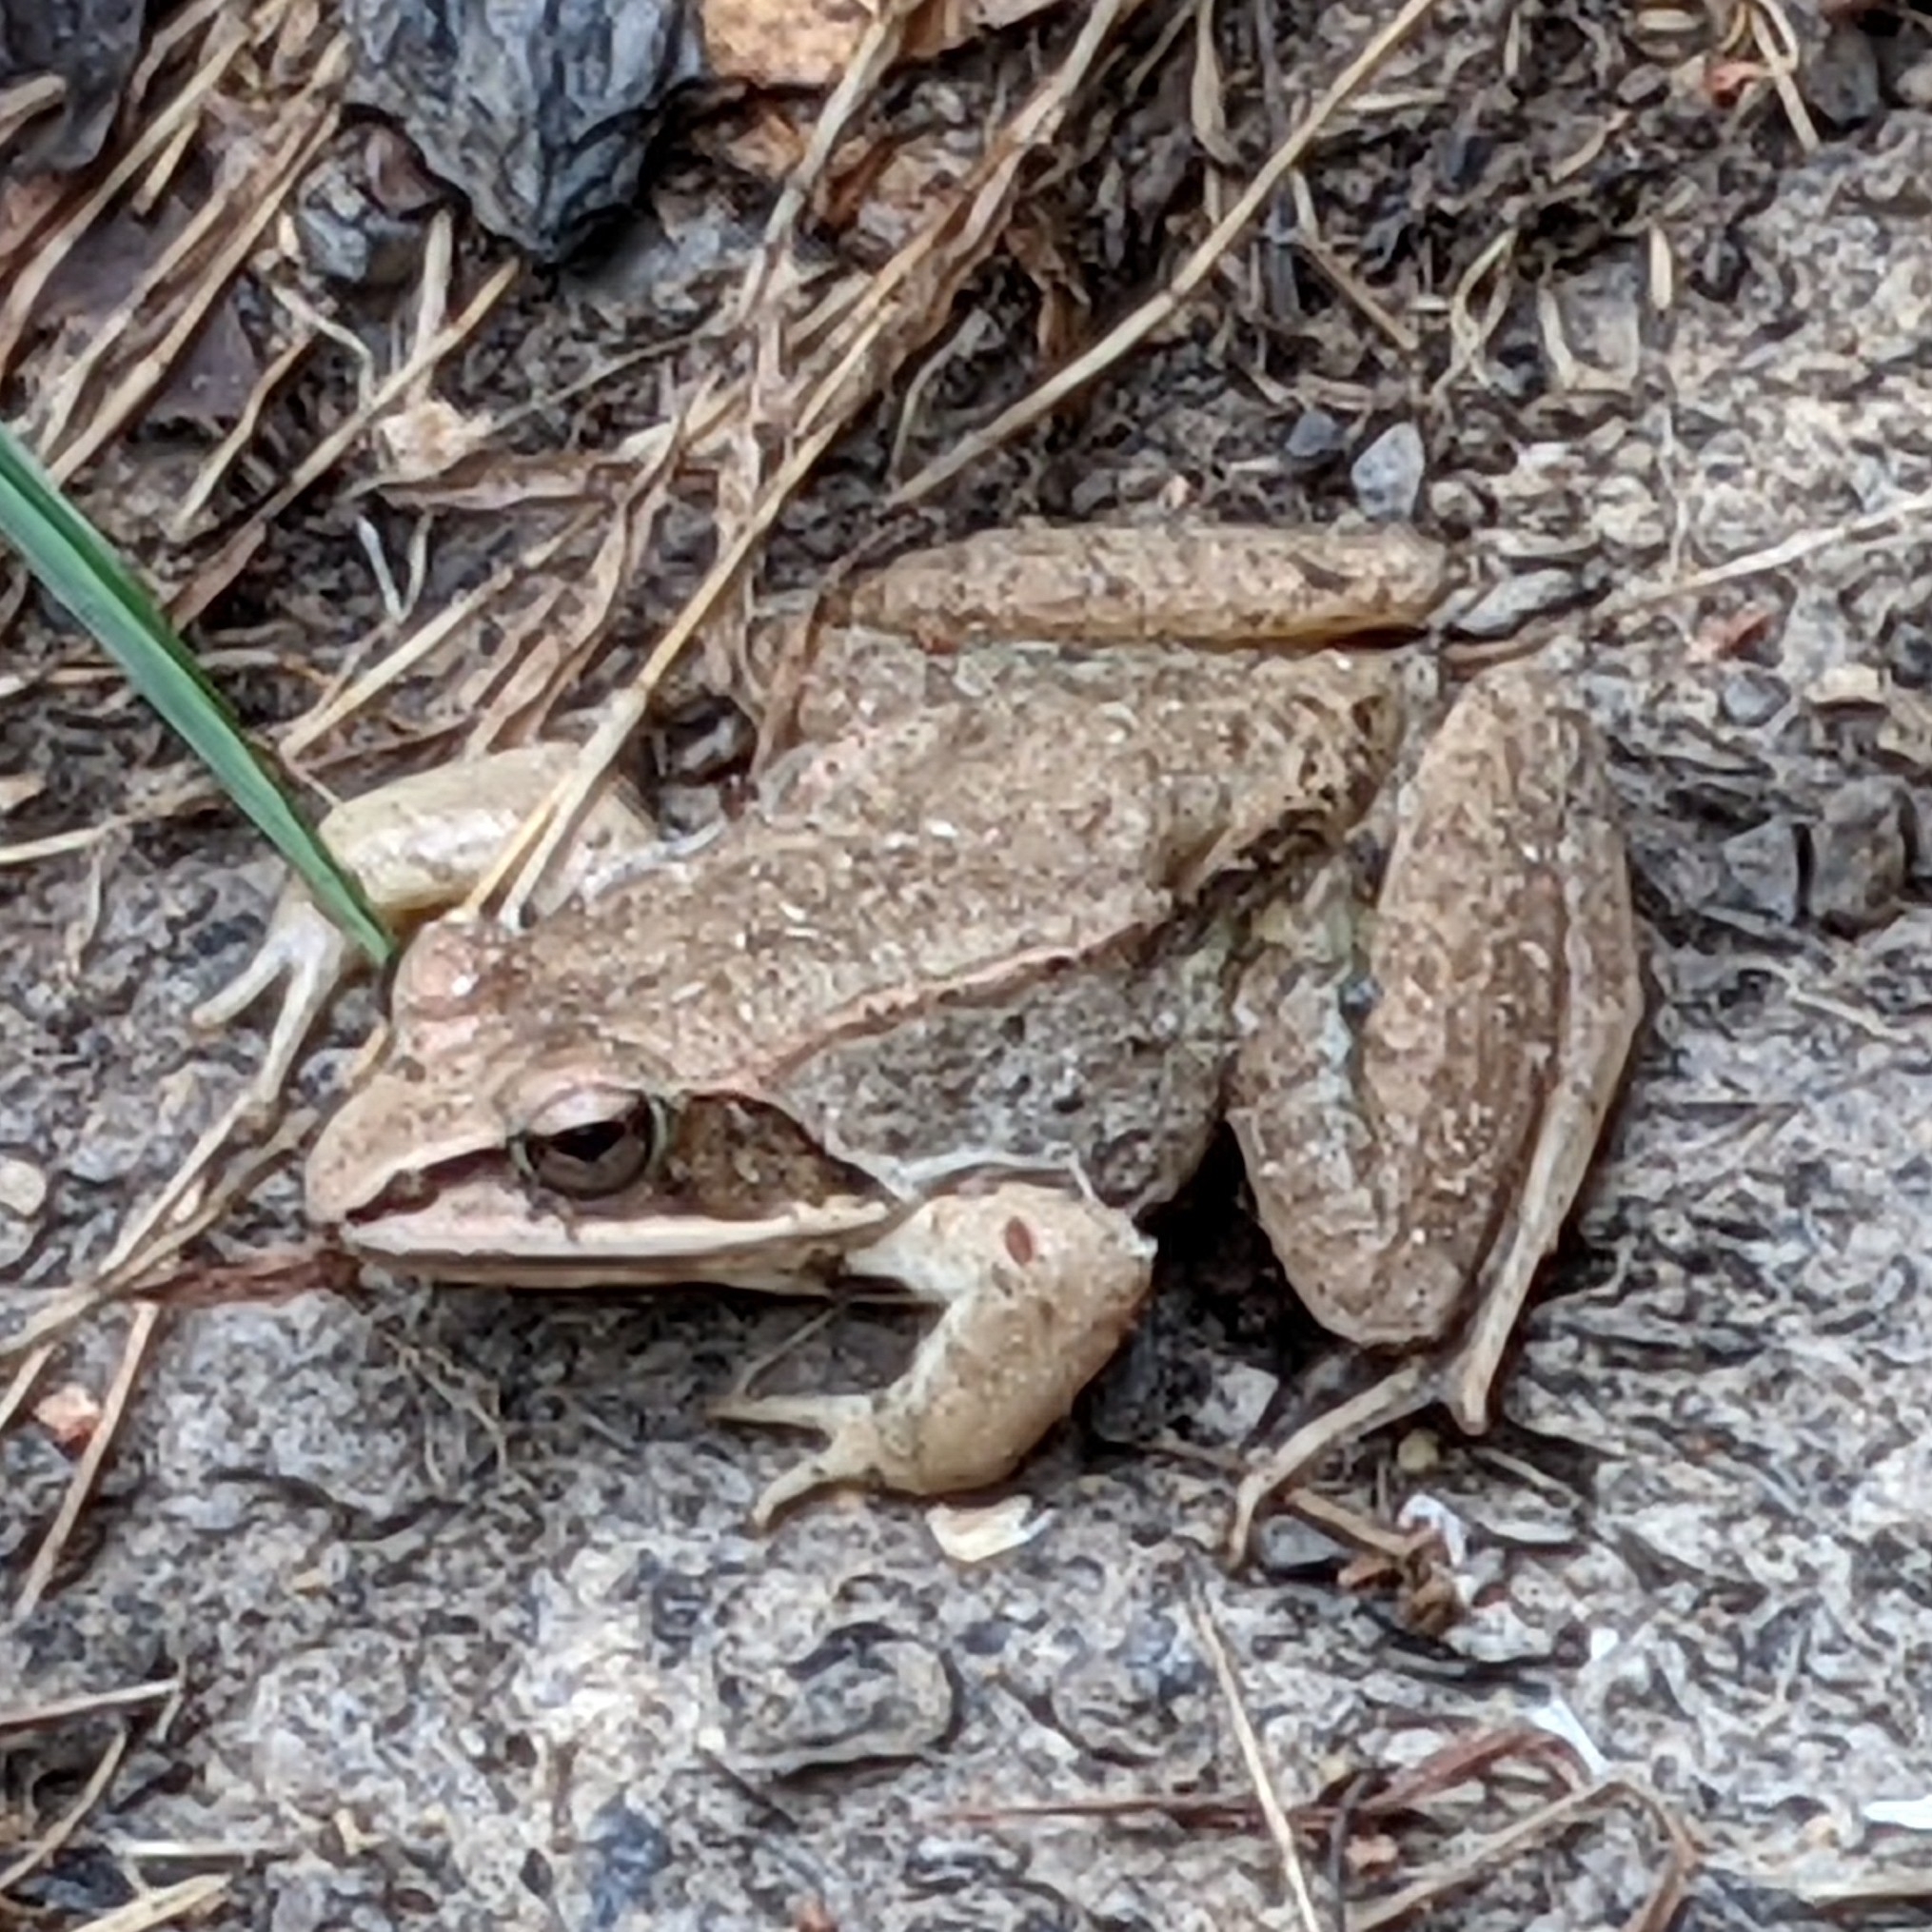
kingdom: Animalia
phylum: Chordata
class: Amphibia
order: Anura
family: Ranidae
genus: Lithobates
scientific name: Lithobates sylvaticus
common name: Wood frog
